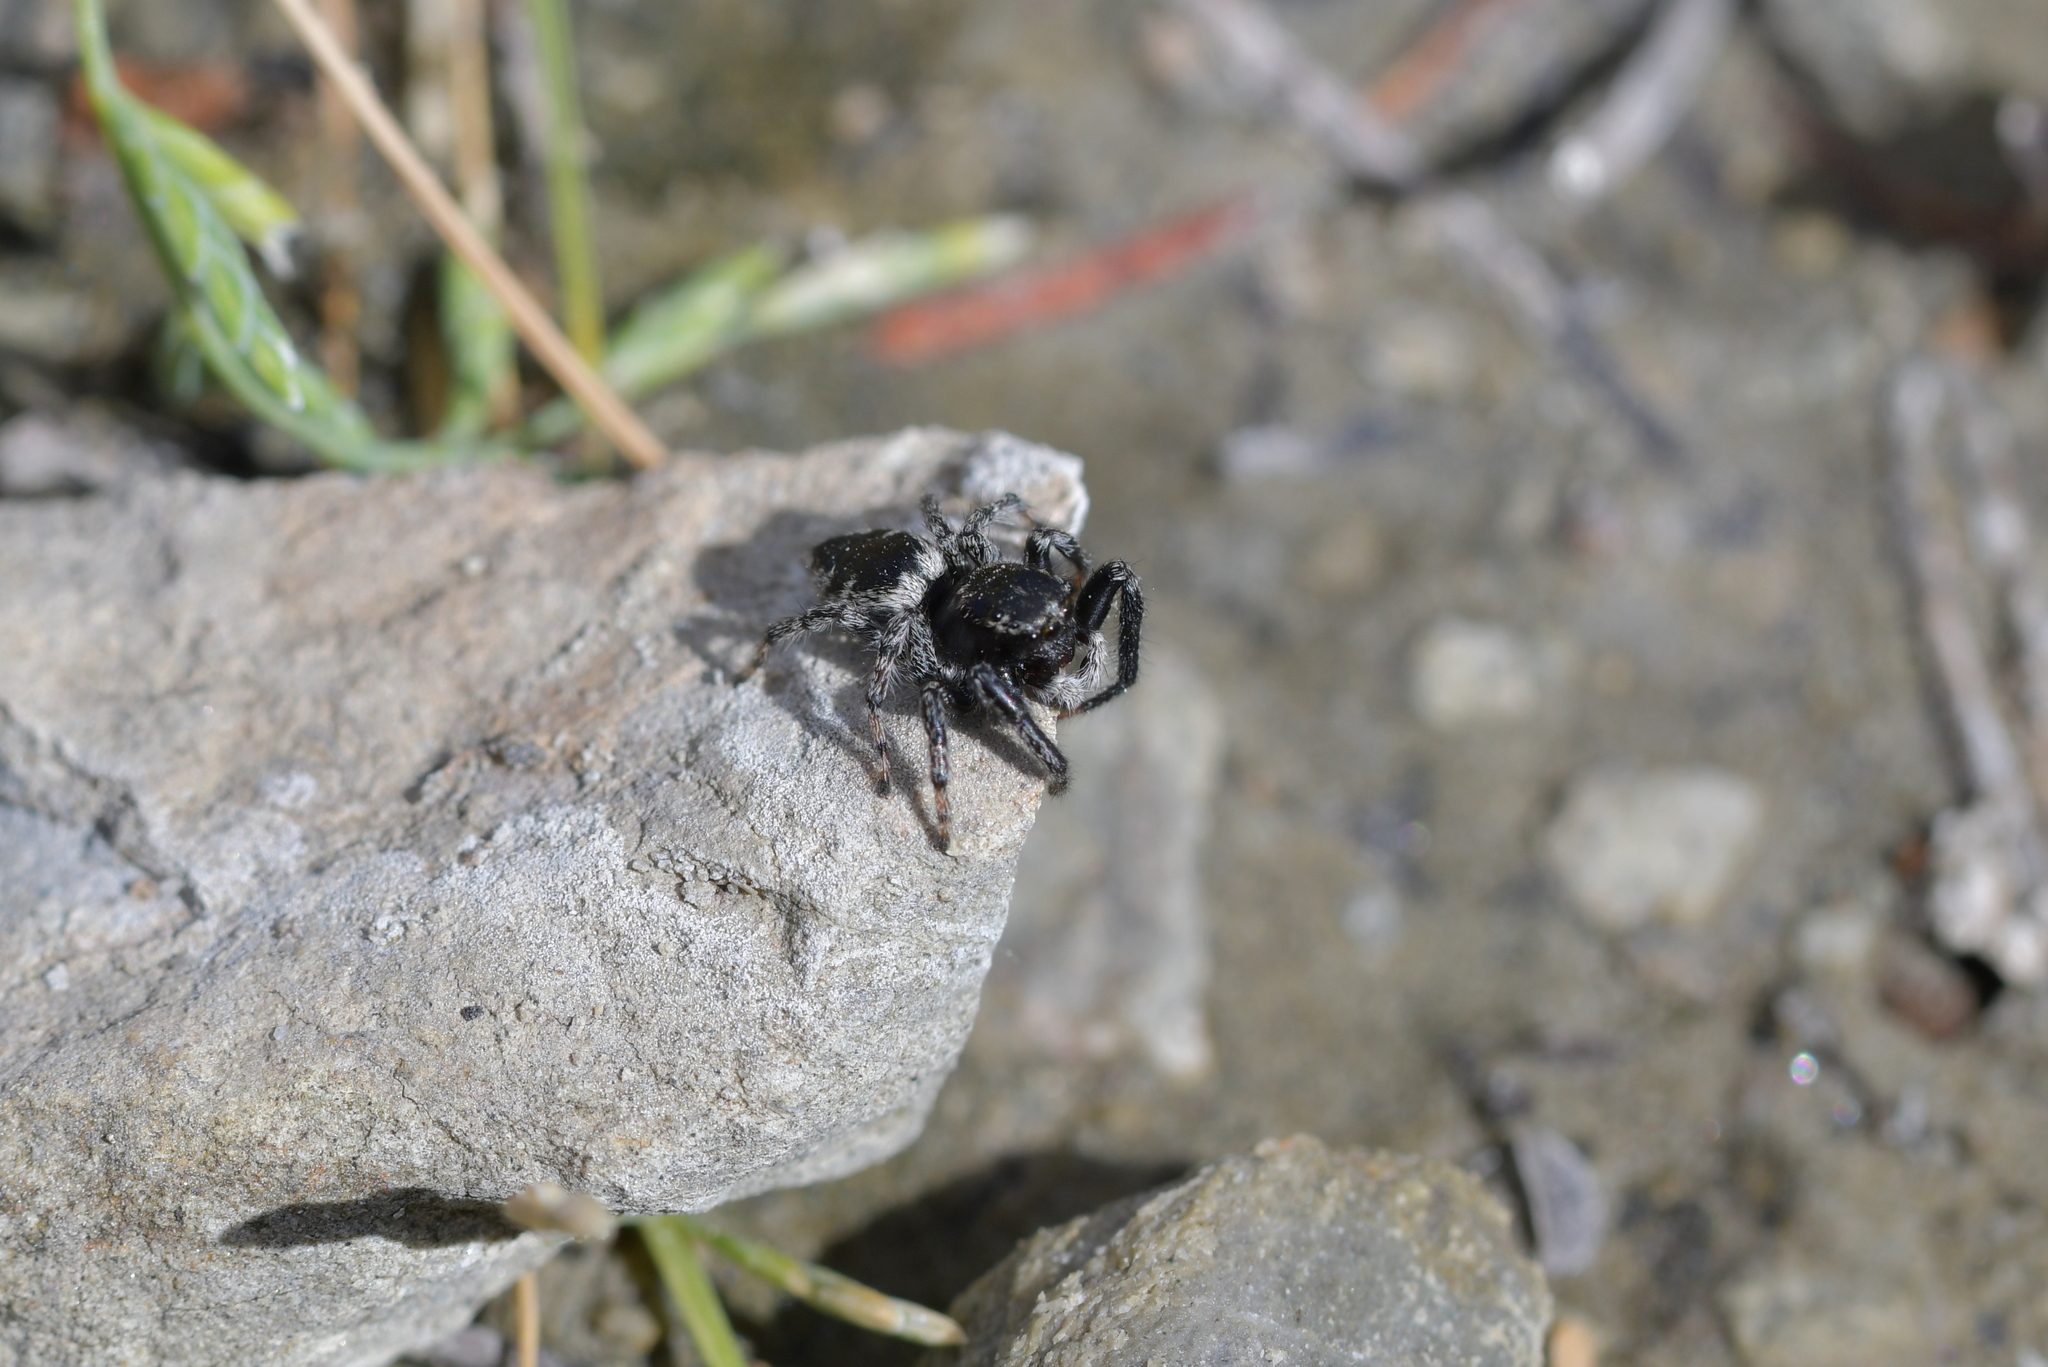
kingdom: Animalia
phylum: Arthropoda
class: Arachnida
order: Araneae
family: Salticidae
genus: Marpissa
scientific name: Marpissa marina
